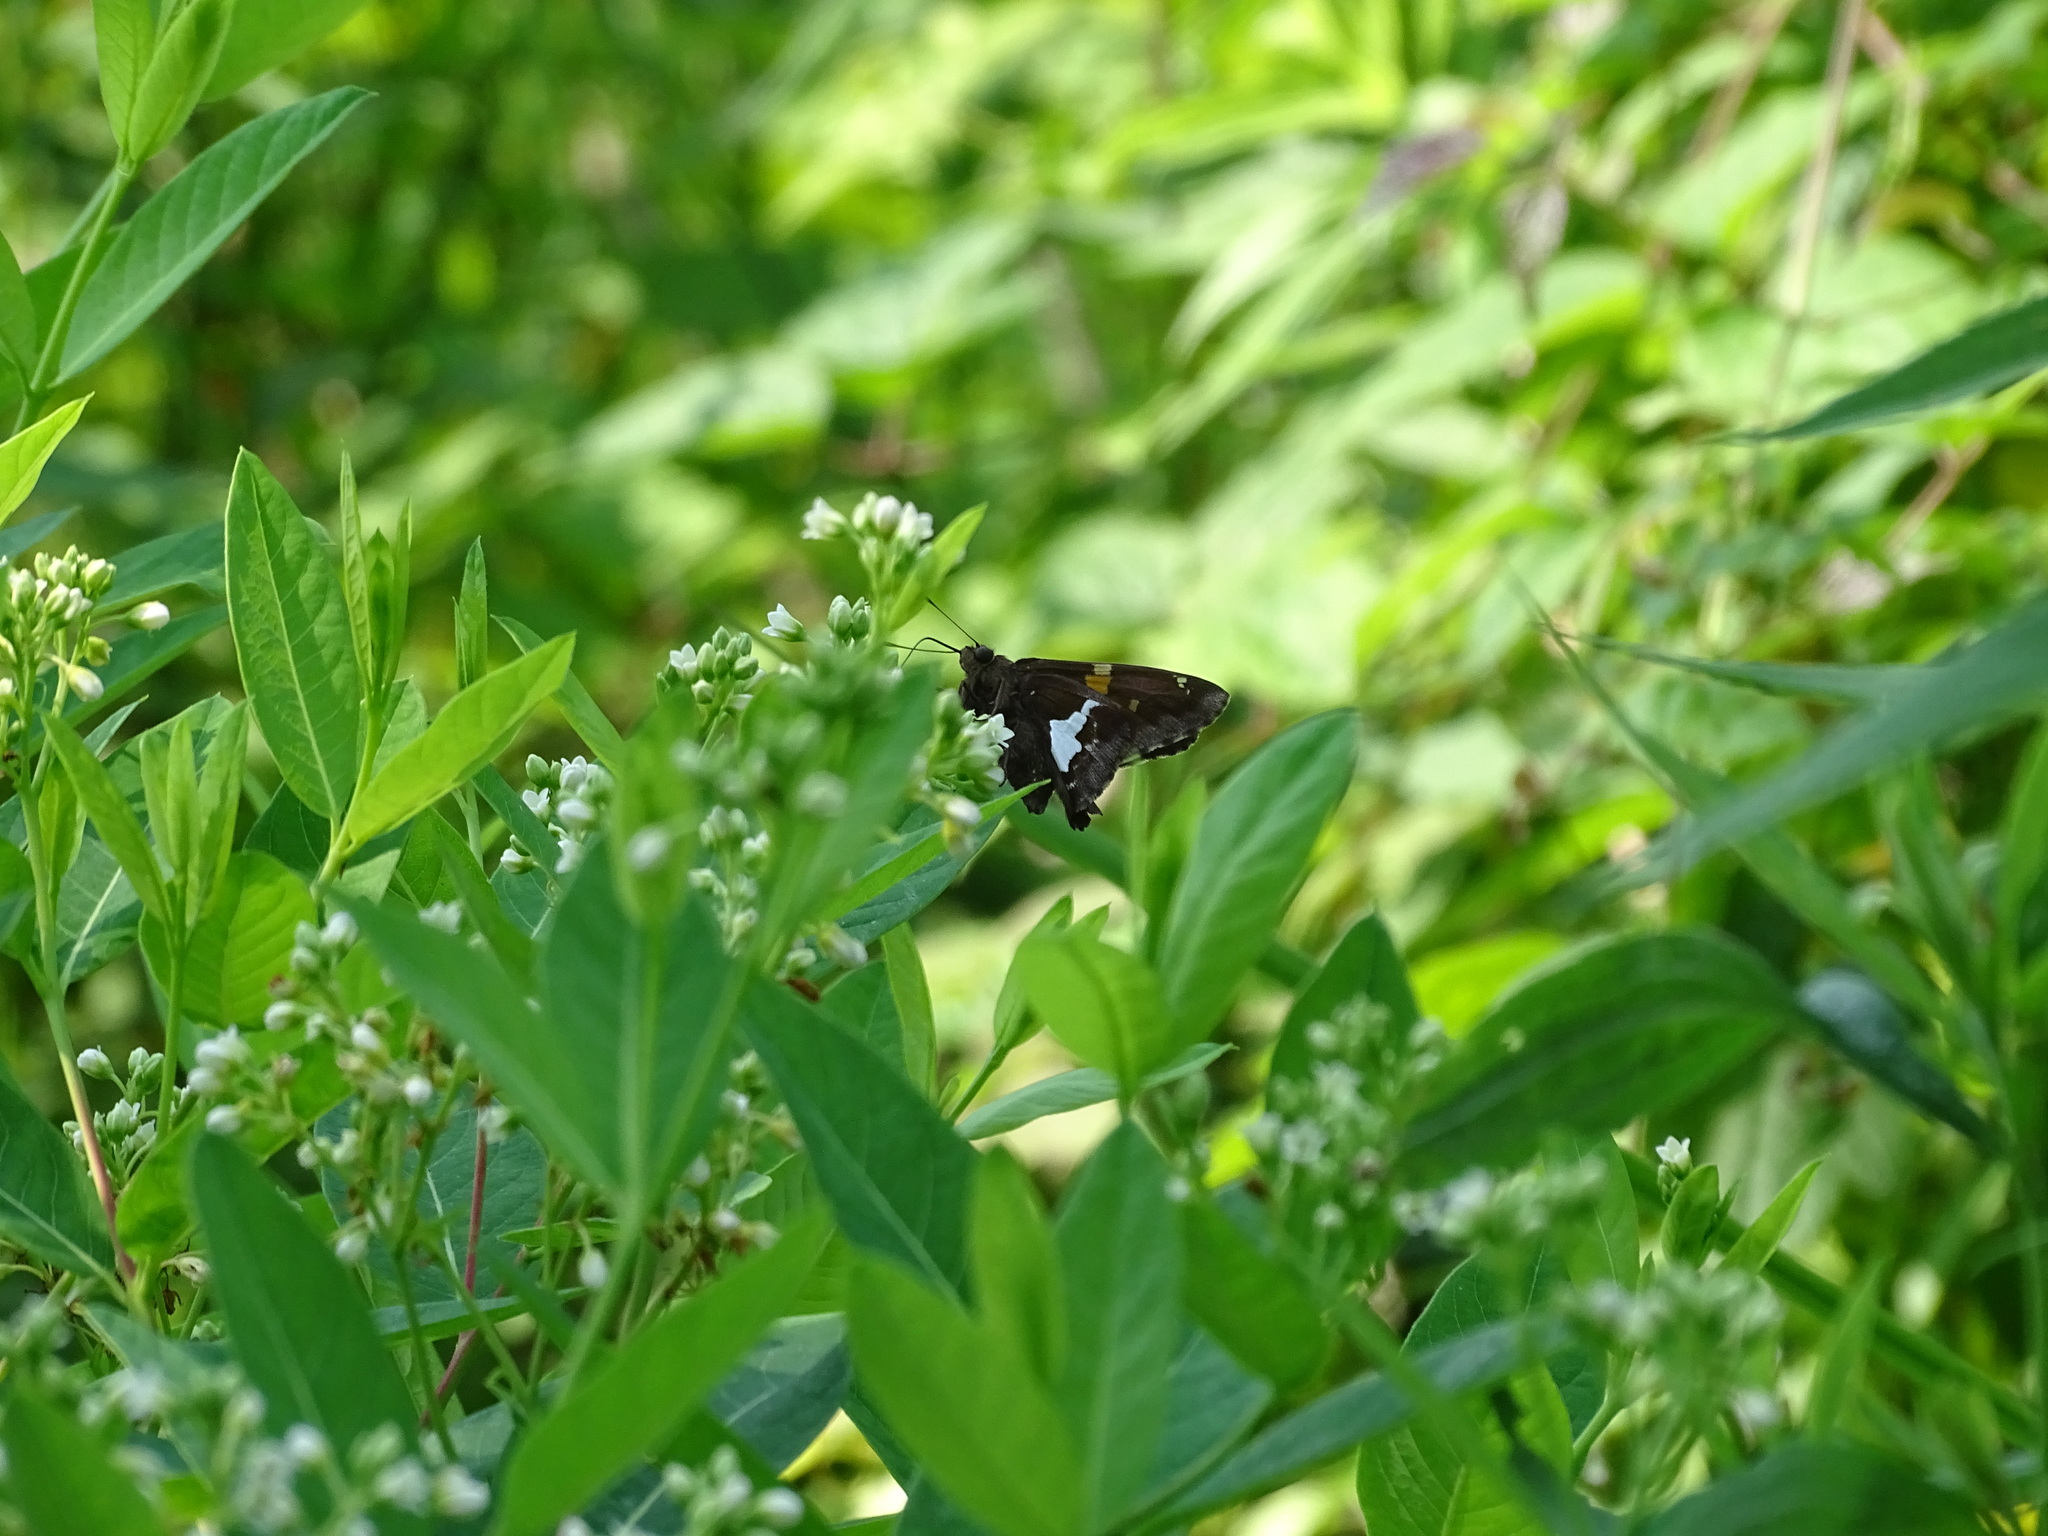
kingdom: Animalia
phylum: Arthropoda
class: Insecta
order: Lepidoptera
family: Hesperiidae
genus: Epargyreus
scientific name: Epargyreus clarus
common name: Silver-spotted skipper
